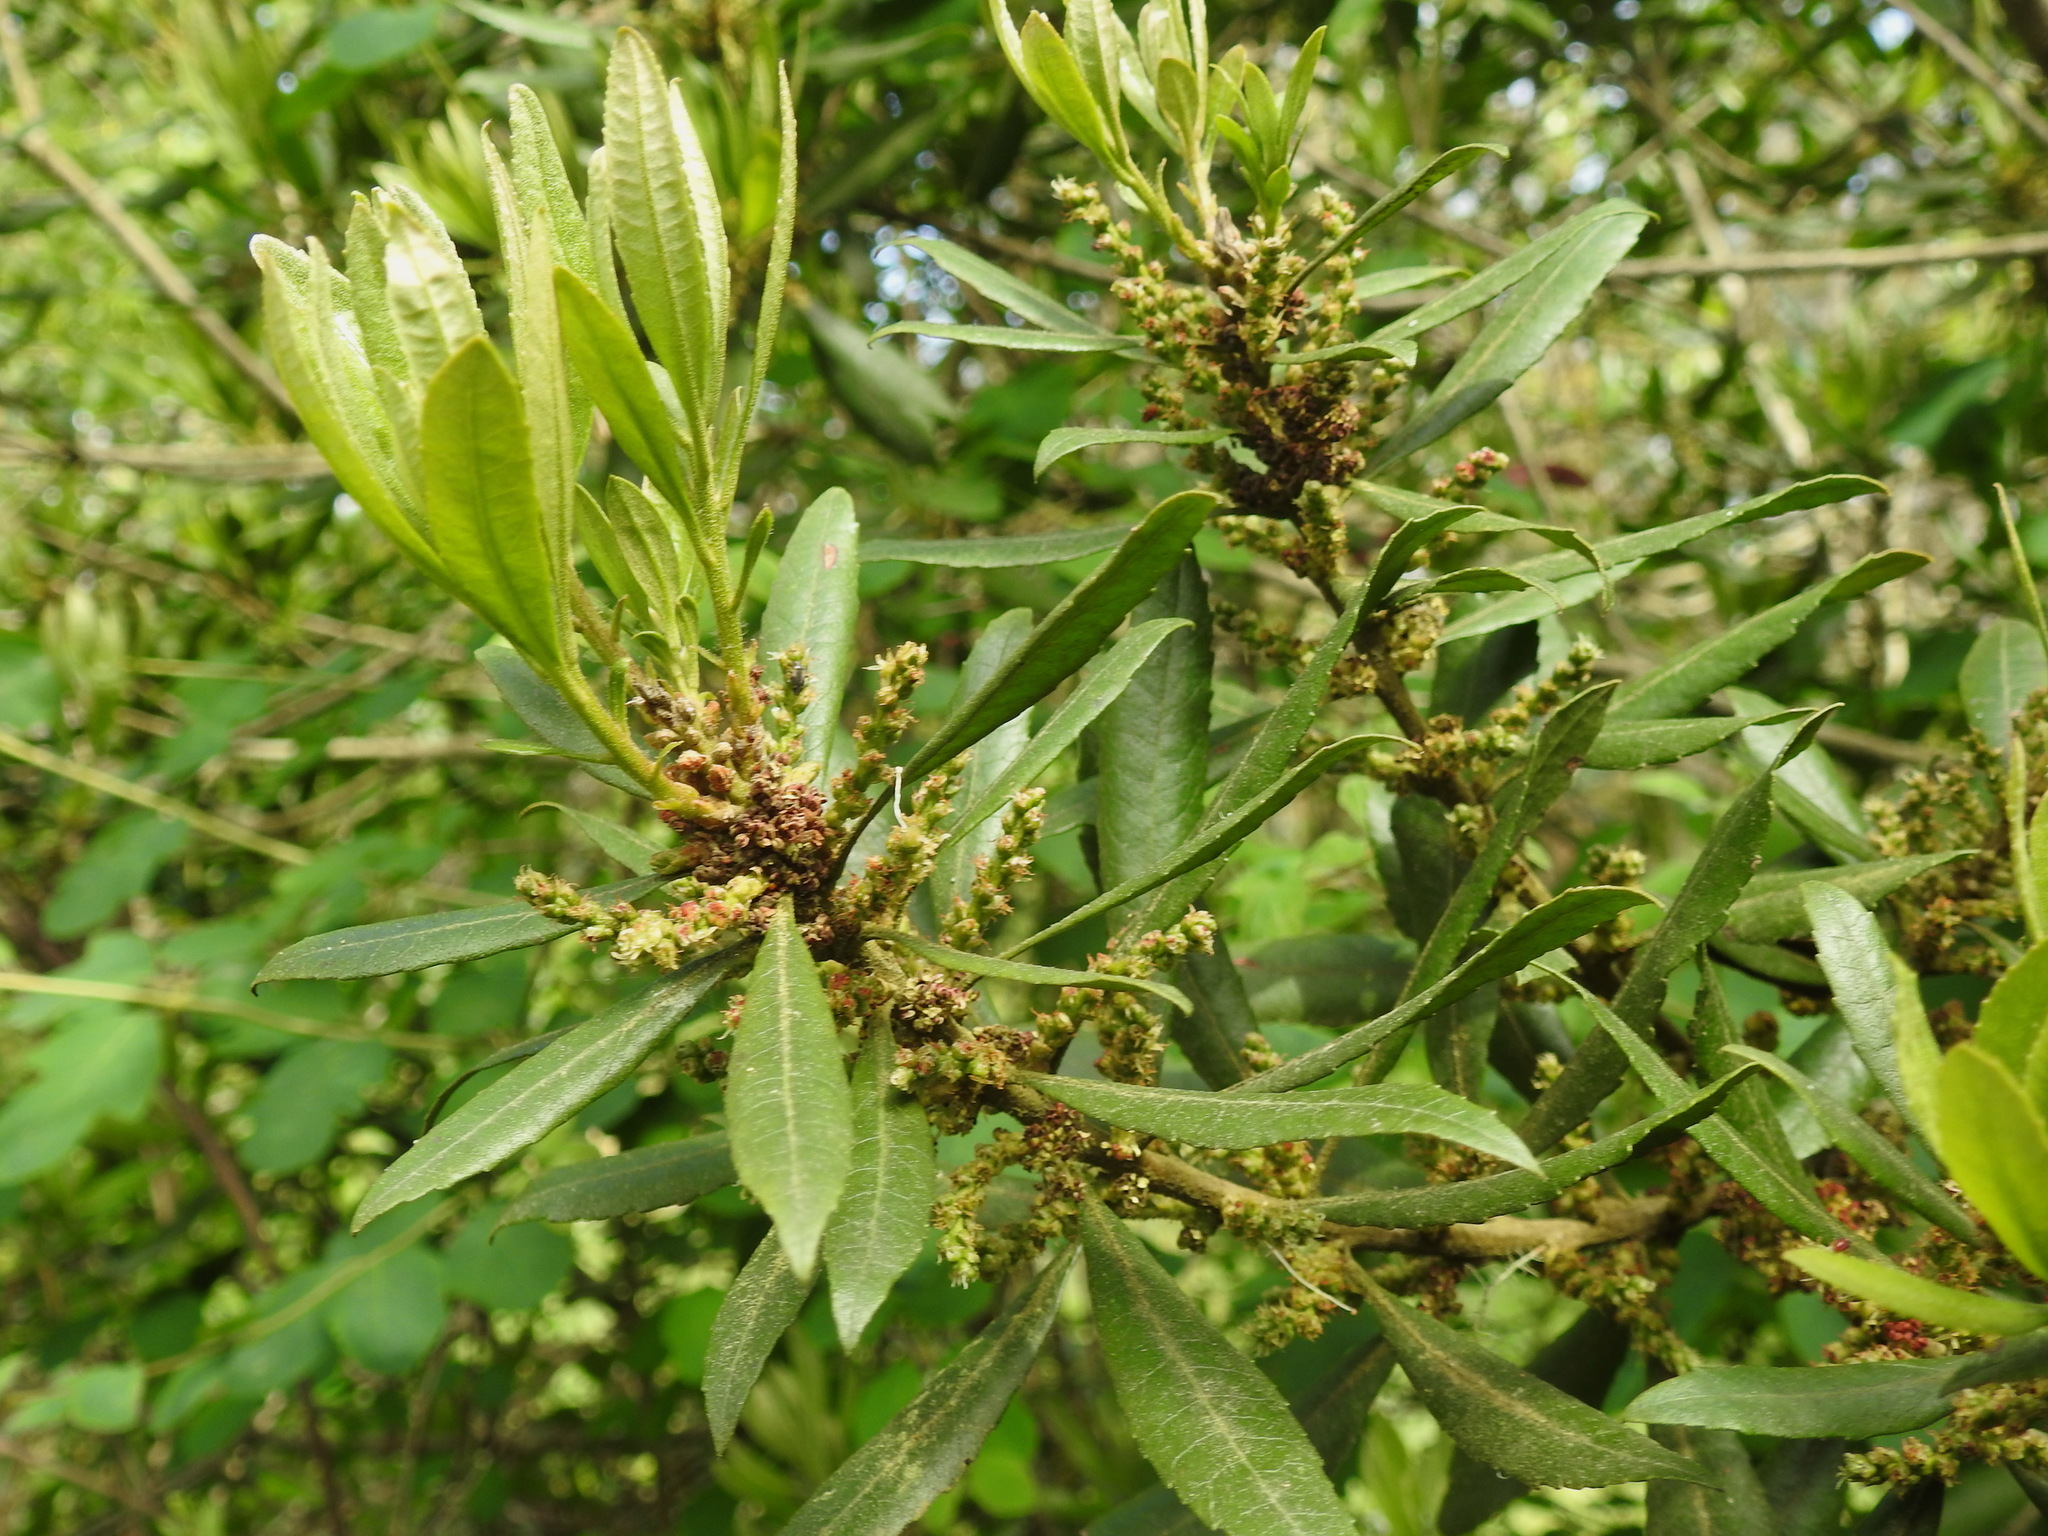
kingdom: Plantae
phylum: Tracheophyta
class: Magnoliopsida
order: Fagales
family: Myricaceae
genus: Morella
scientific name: Morella californica
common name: California wax-myrtle
